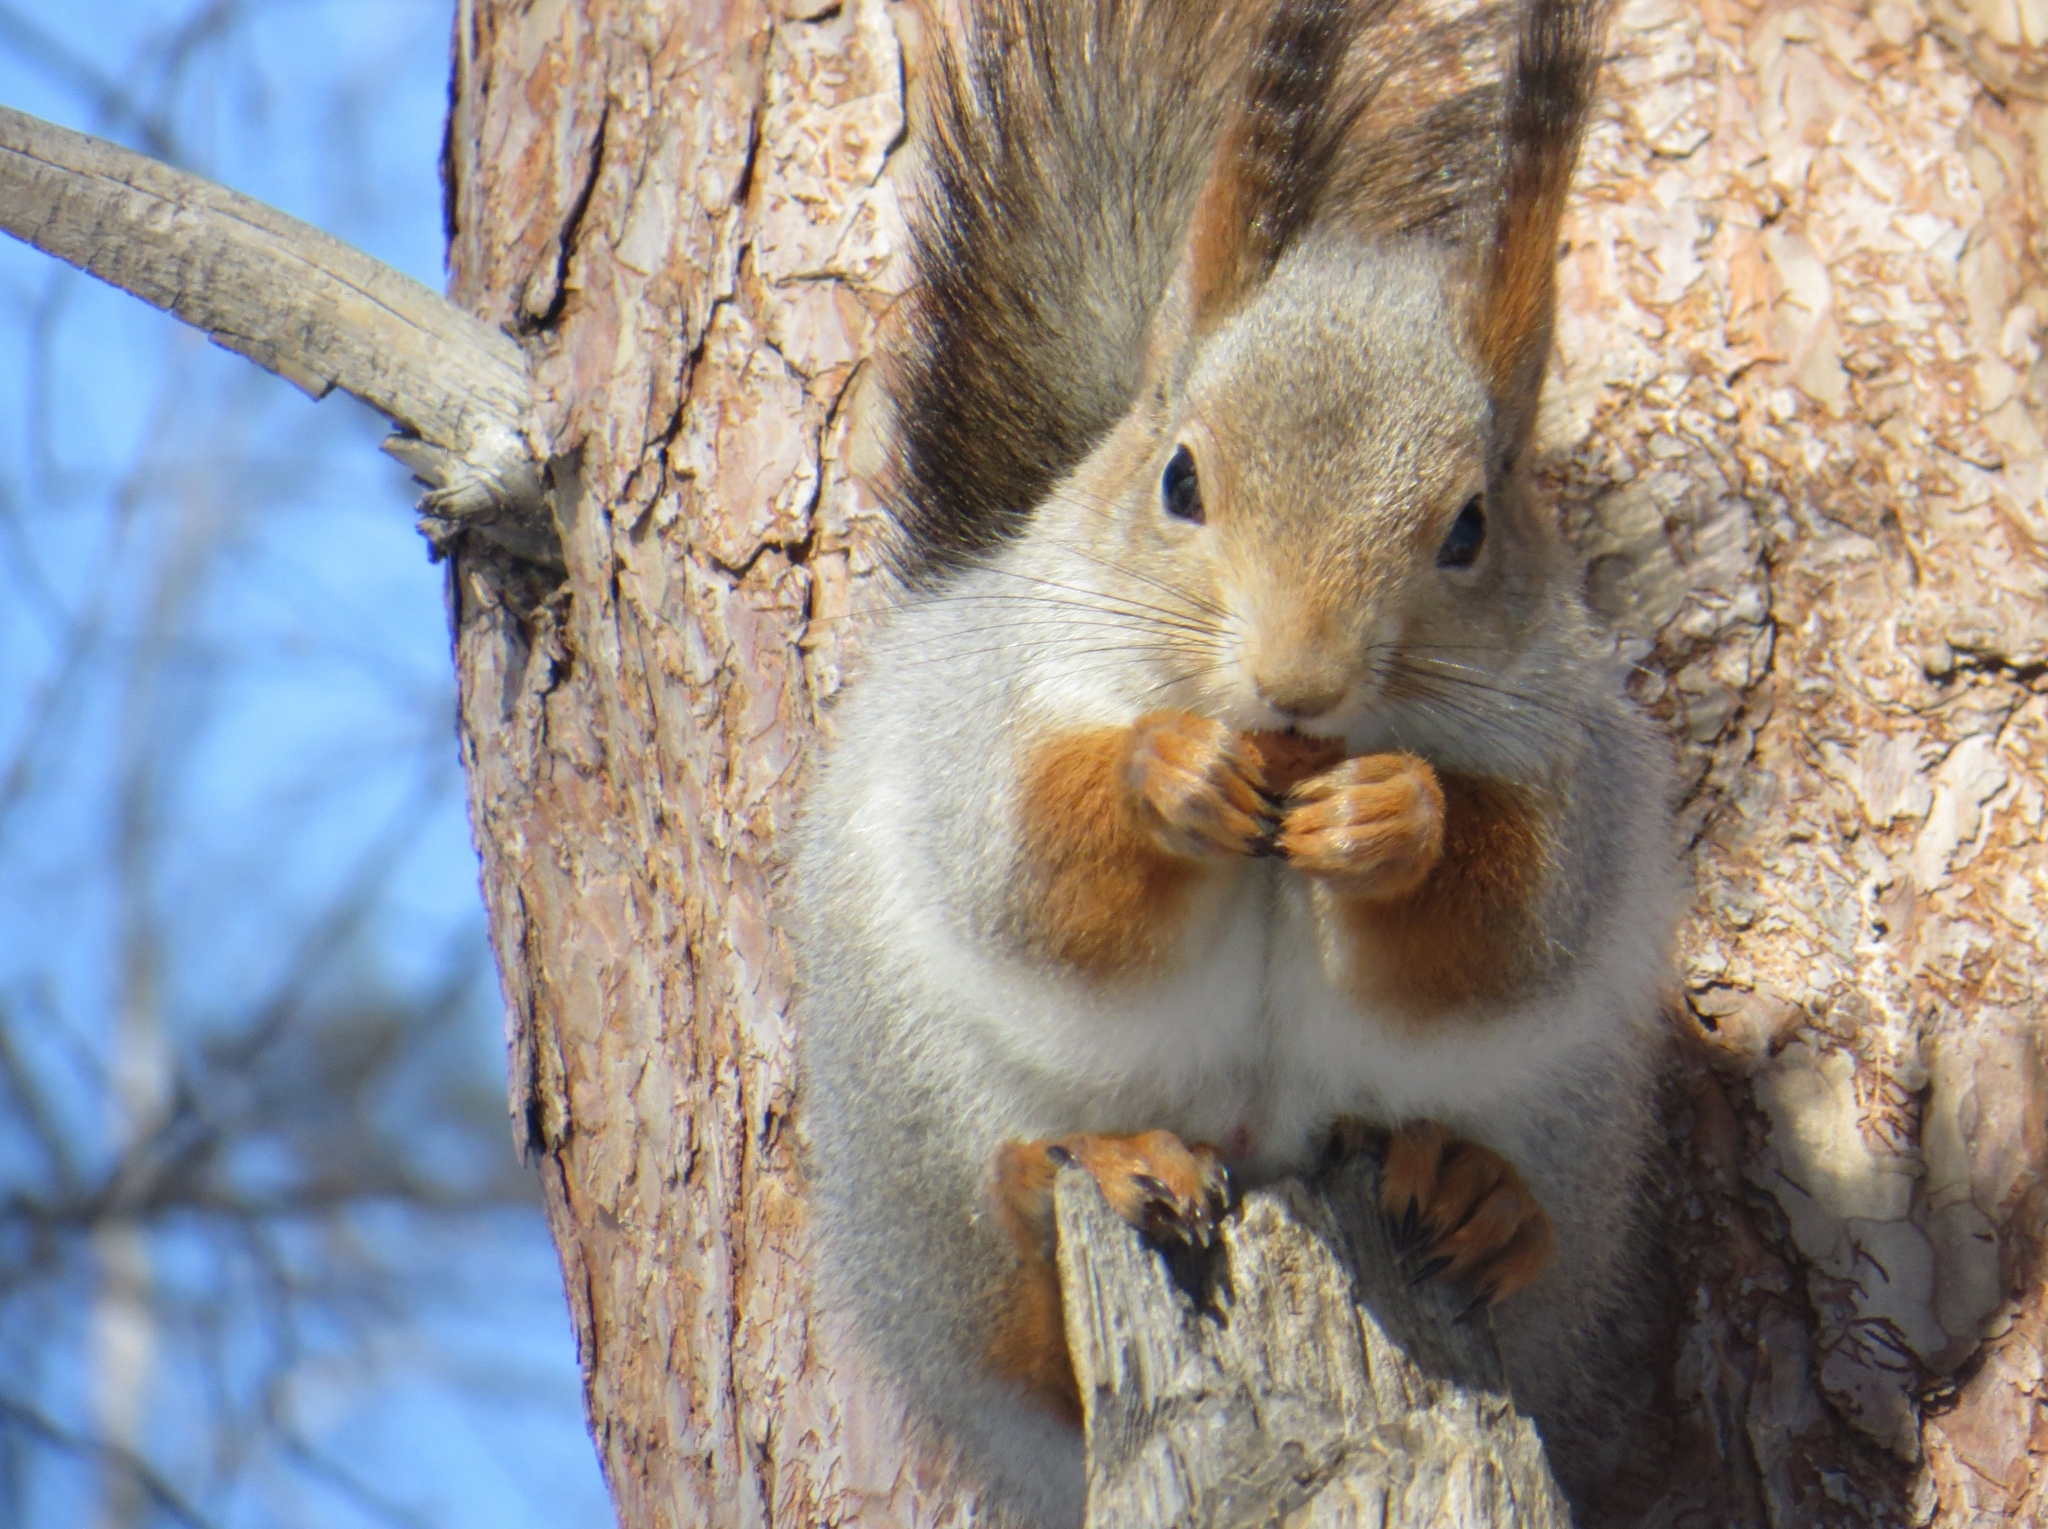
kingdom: Animalia
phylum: Chordata
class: Mammalia
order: Rodentia
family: Sciuridae
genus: Sciurus
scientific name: Sciurus vulgaris
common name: Eurasian red squirrel
